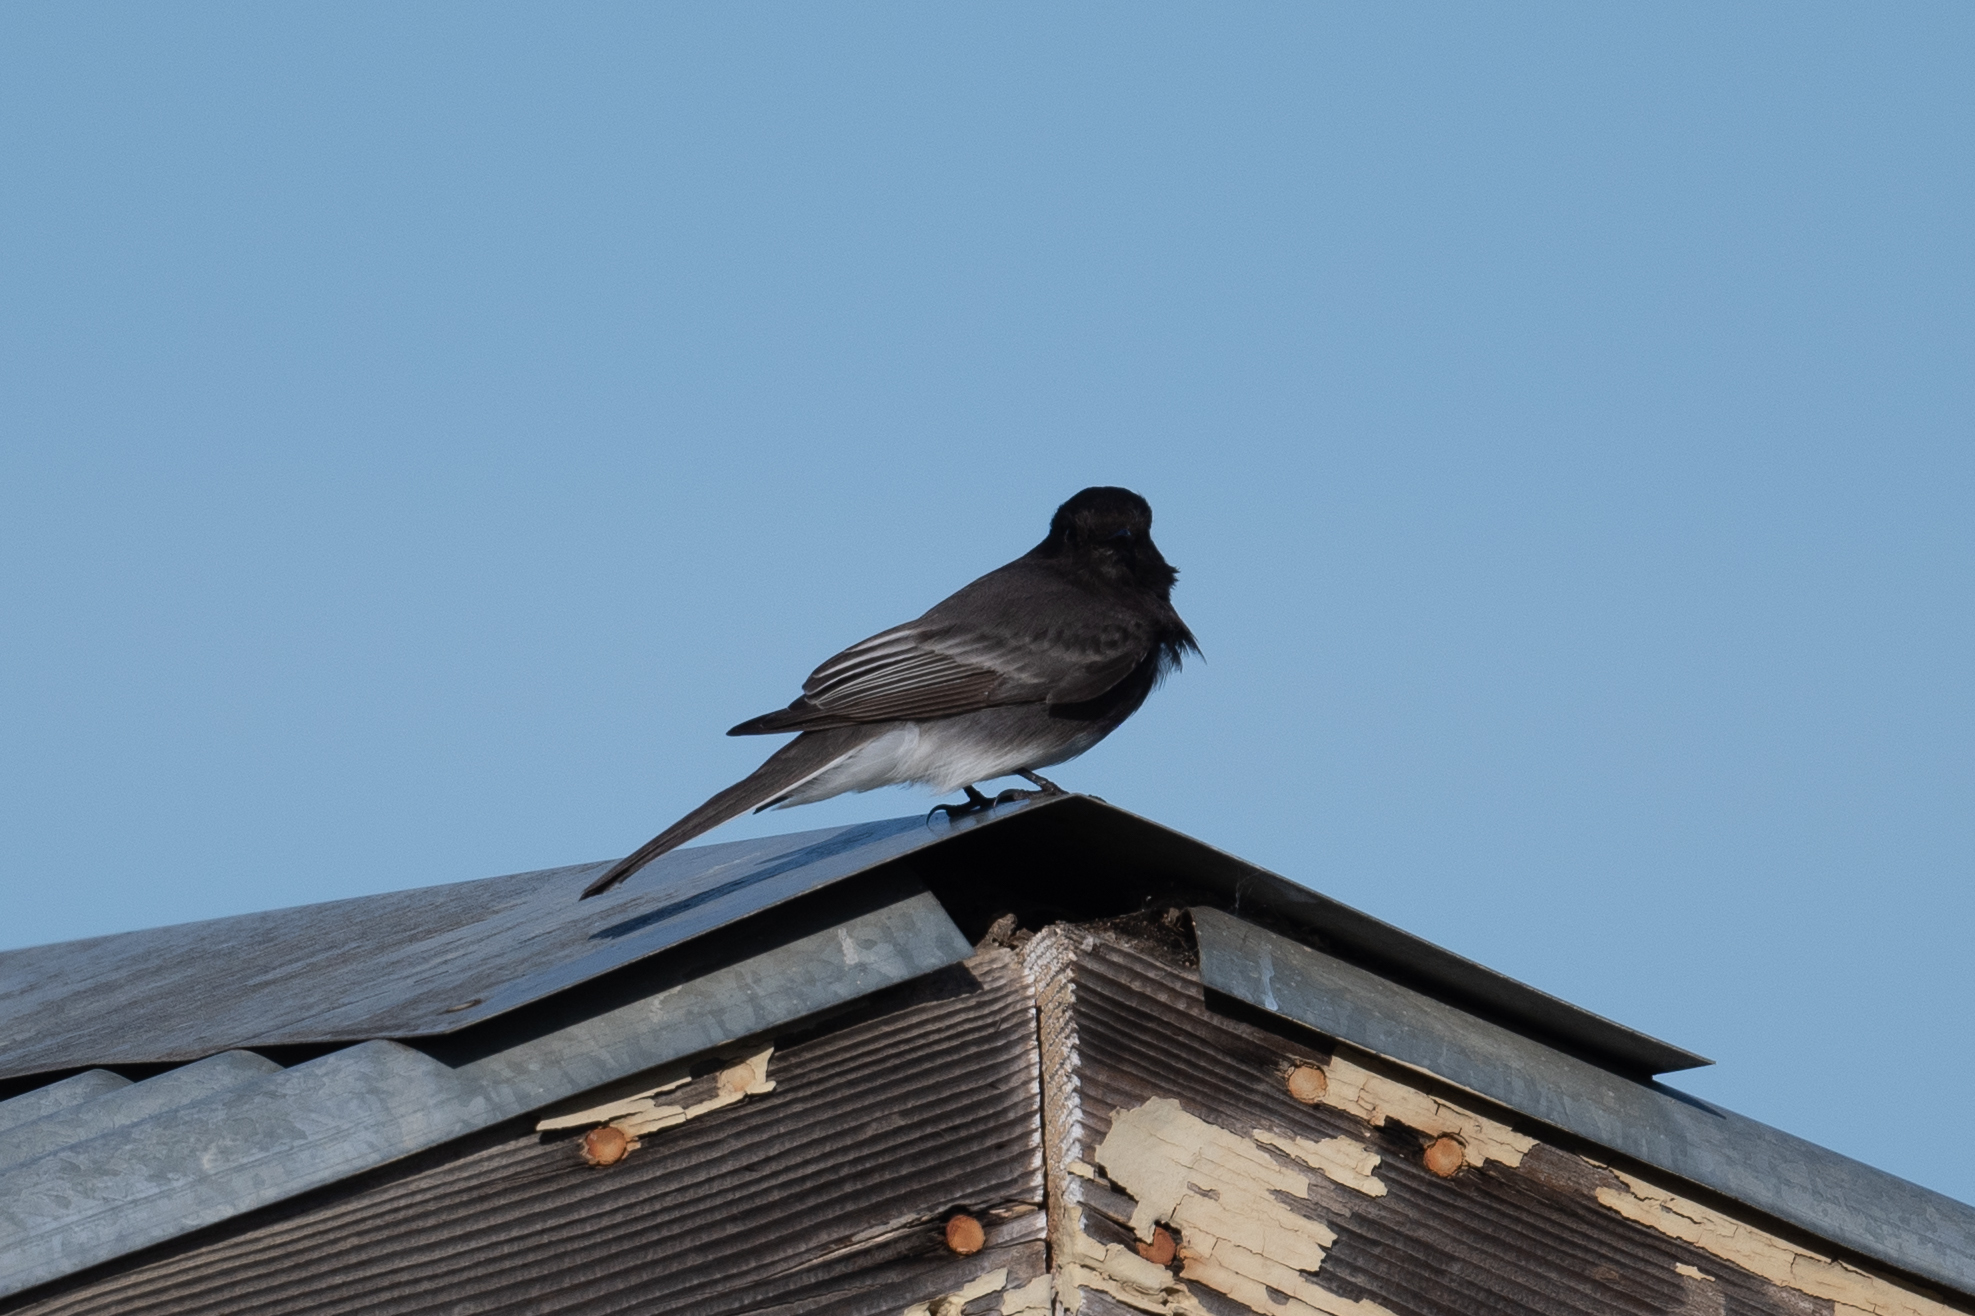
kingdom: Animalia
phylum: Chordata
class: Aves
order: Passeriformes
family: Tyrannidae
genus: Sayornis
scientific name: Sayornis nigricans
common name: Black phoebe
